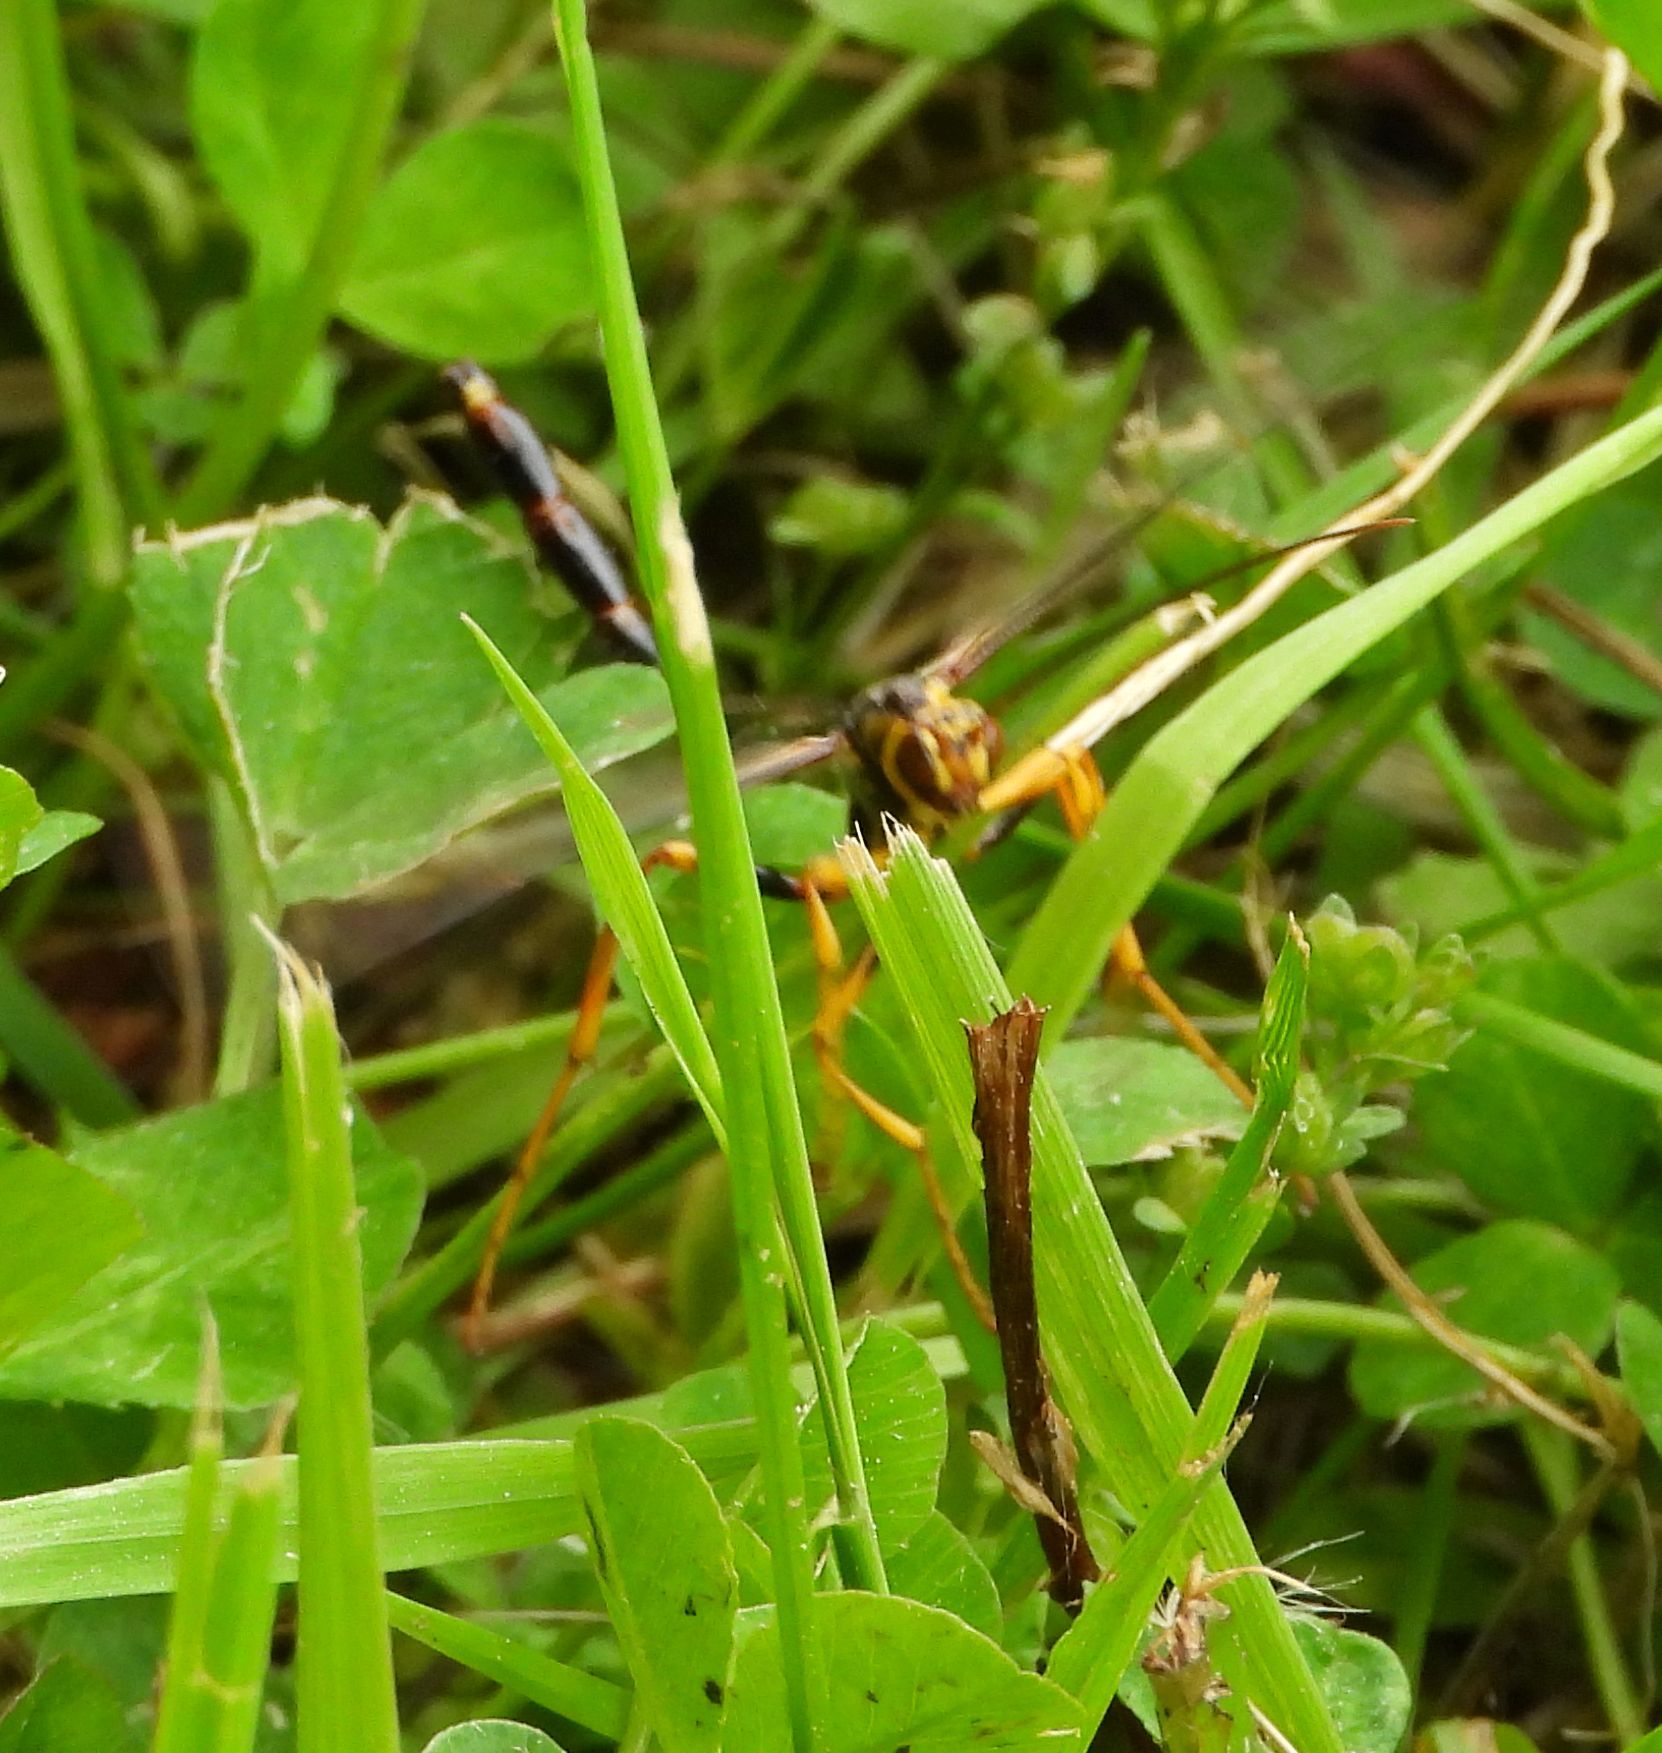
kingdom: Animalia
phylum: Arthropoda
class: Insecta
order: Hymenoptera
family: Ichneumonidae
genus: Megarhyssa
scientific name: Megarhyssa atrata
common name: Black giant ichneumonid wasp
